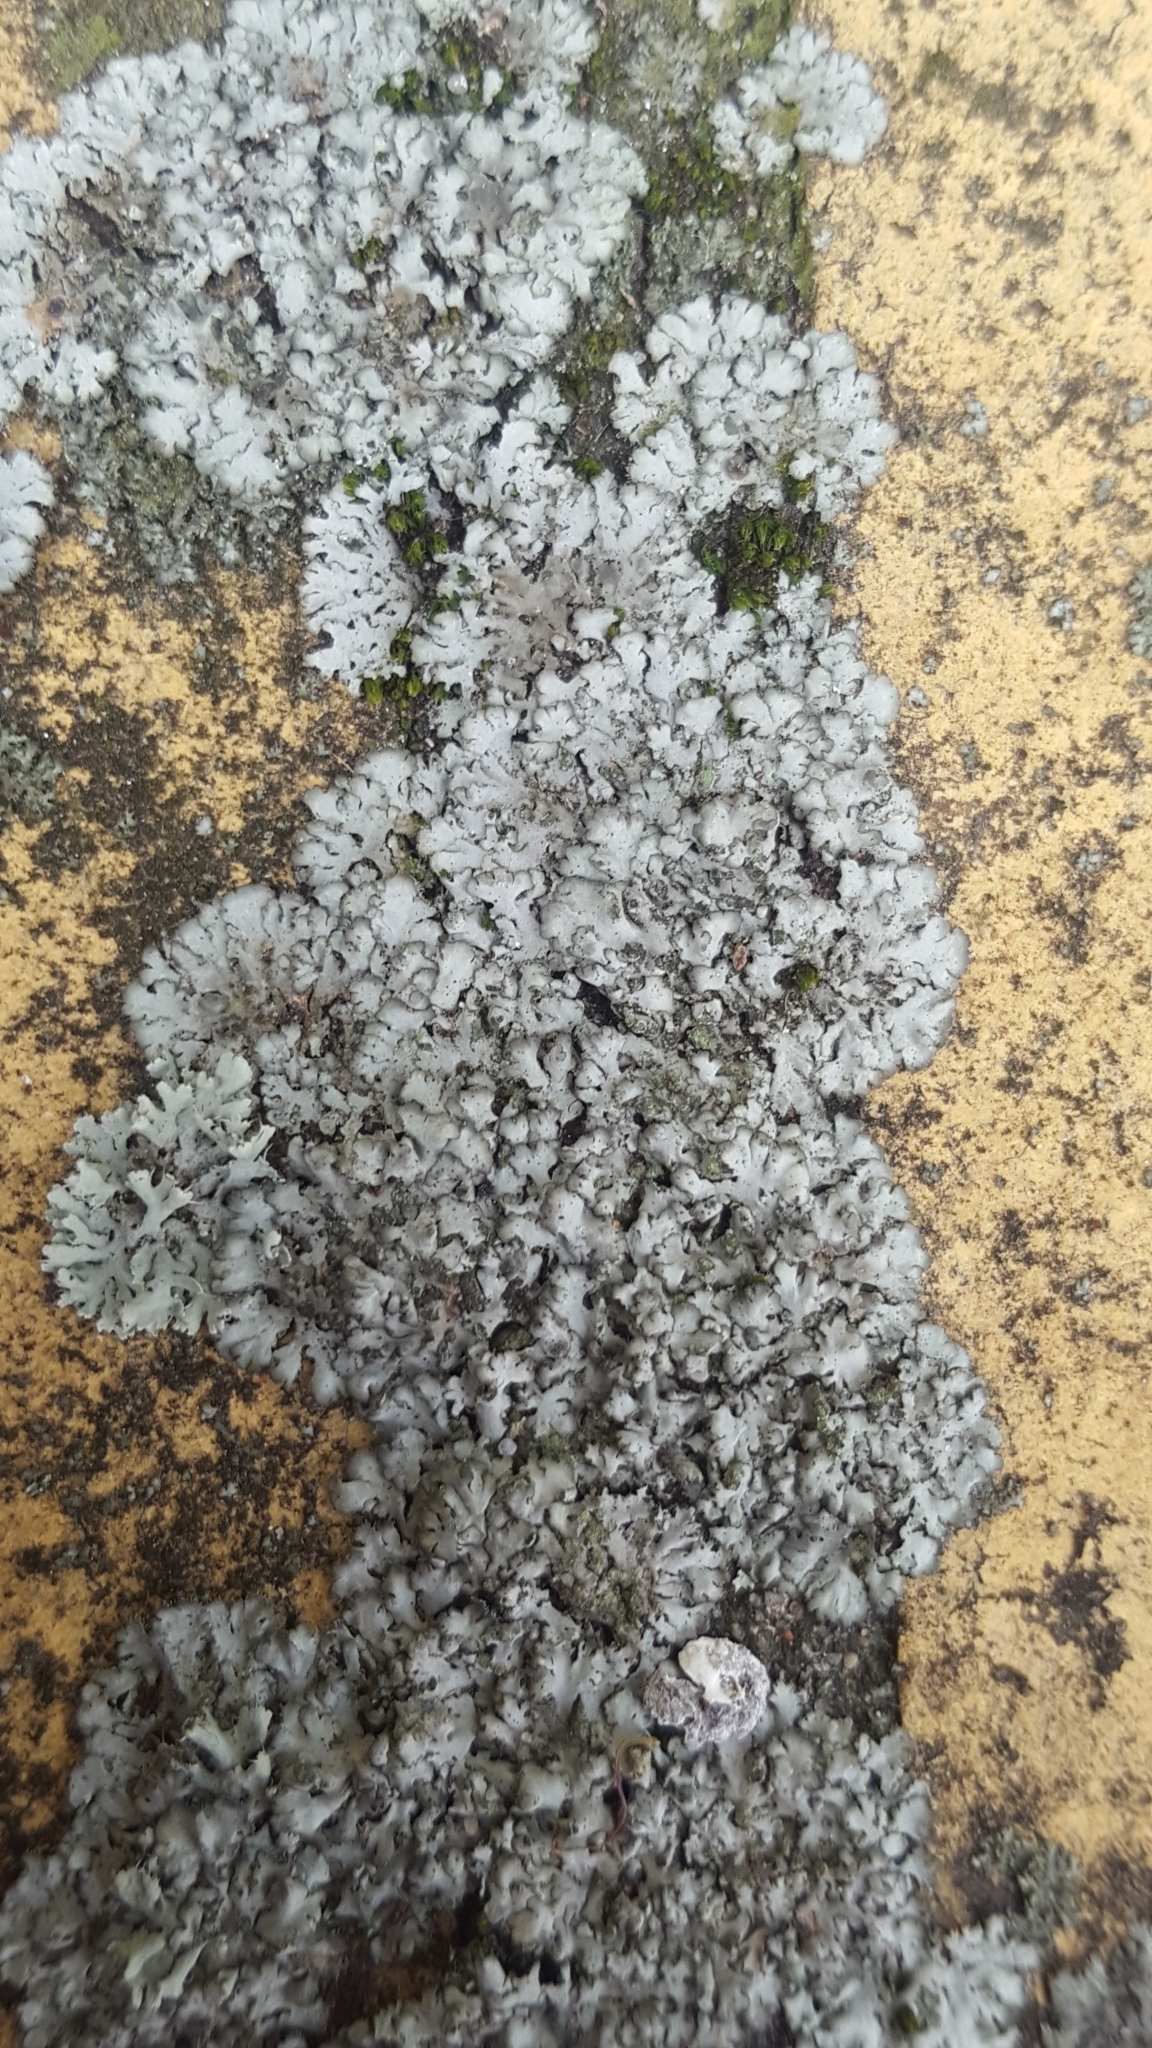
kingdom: Fungi
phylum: Ascomycota
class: Lecanoromycetes
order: Caliciales
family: Physciaceae
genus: Phaeophyscia
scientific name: Phaeophyscia orbicularis
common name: Mealy shadow lichen
